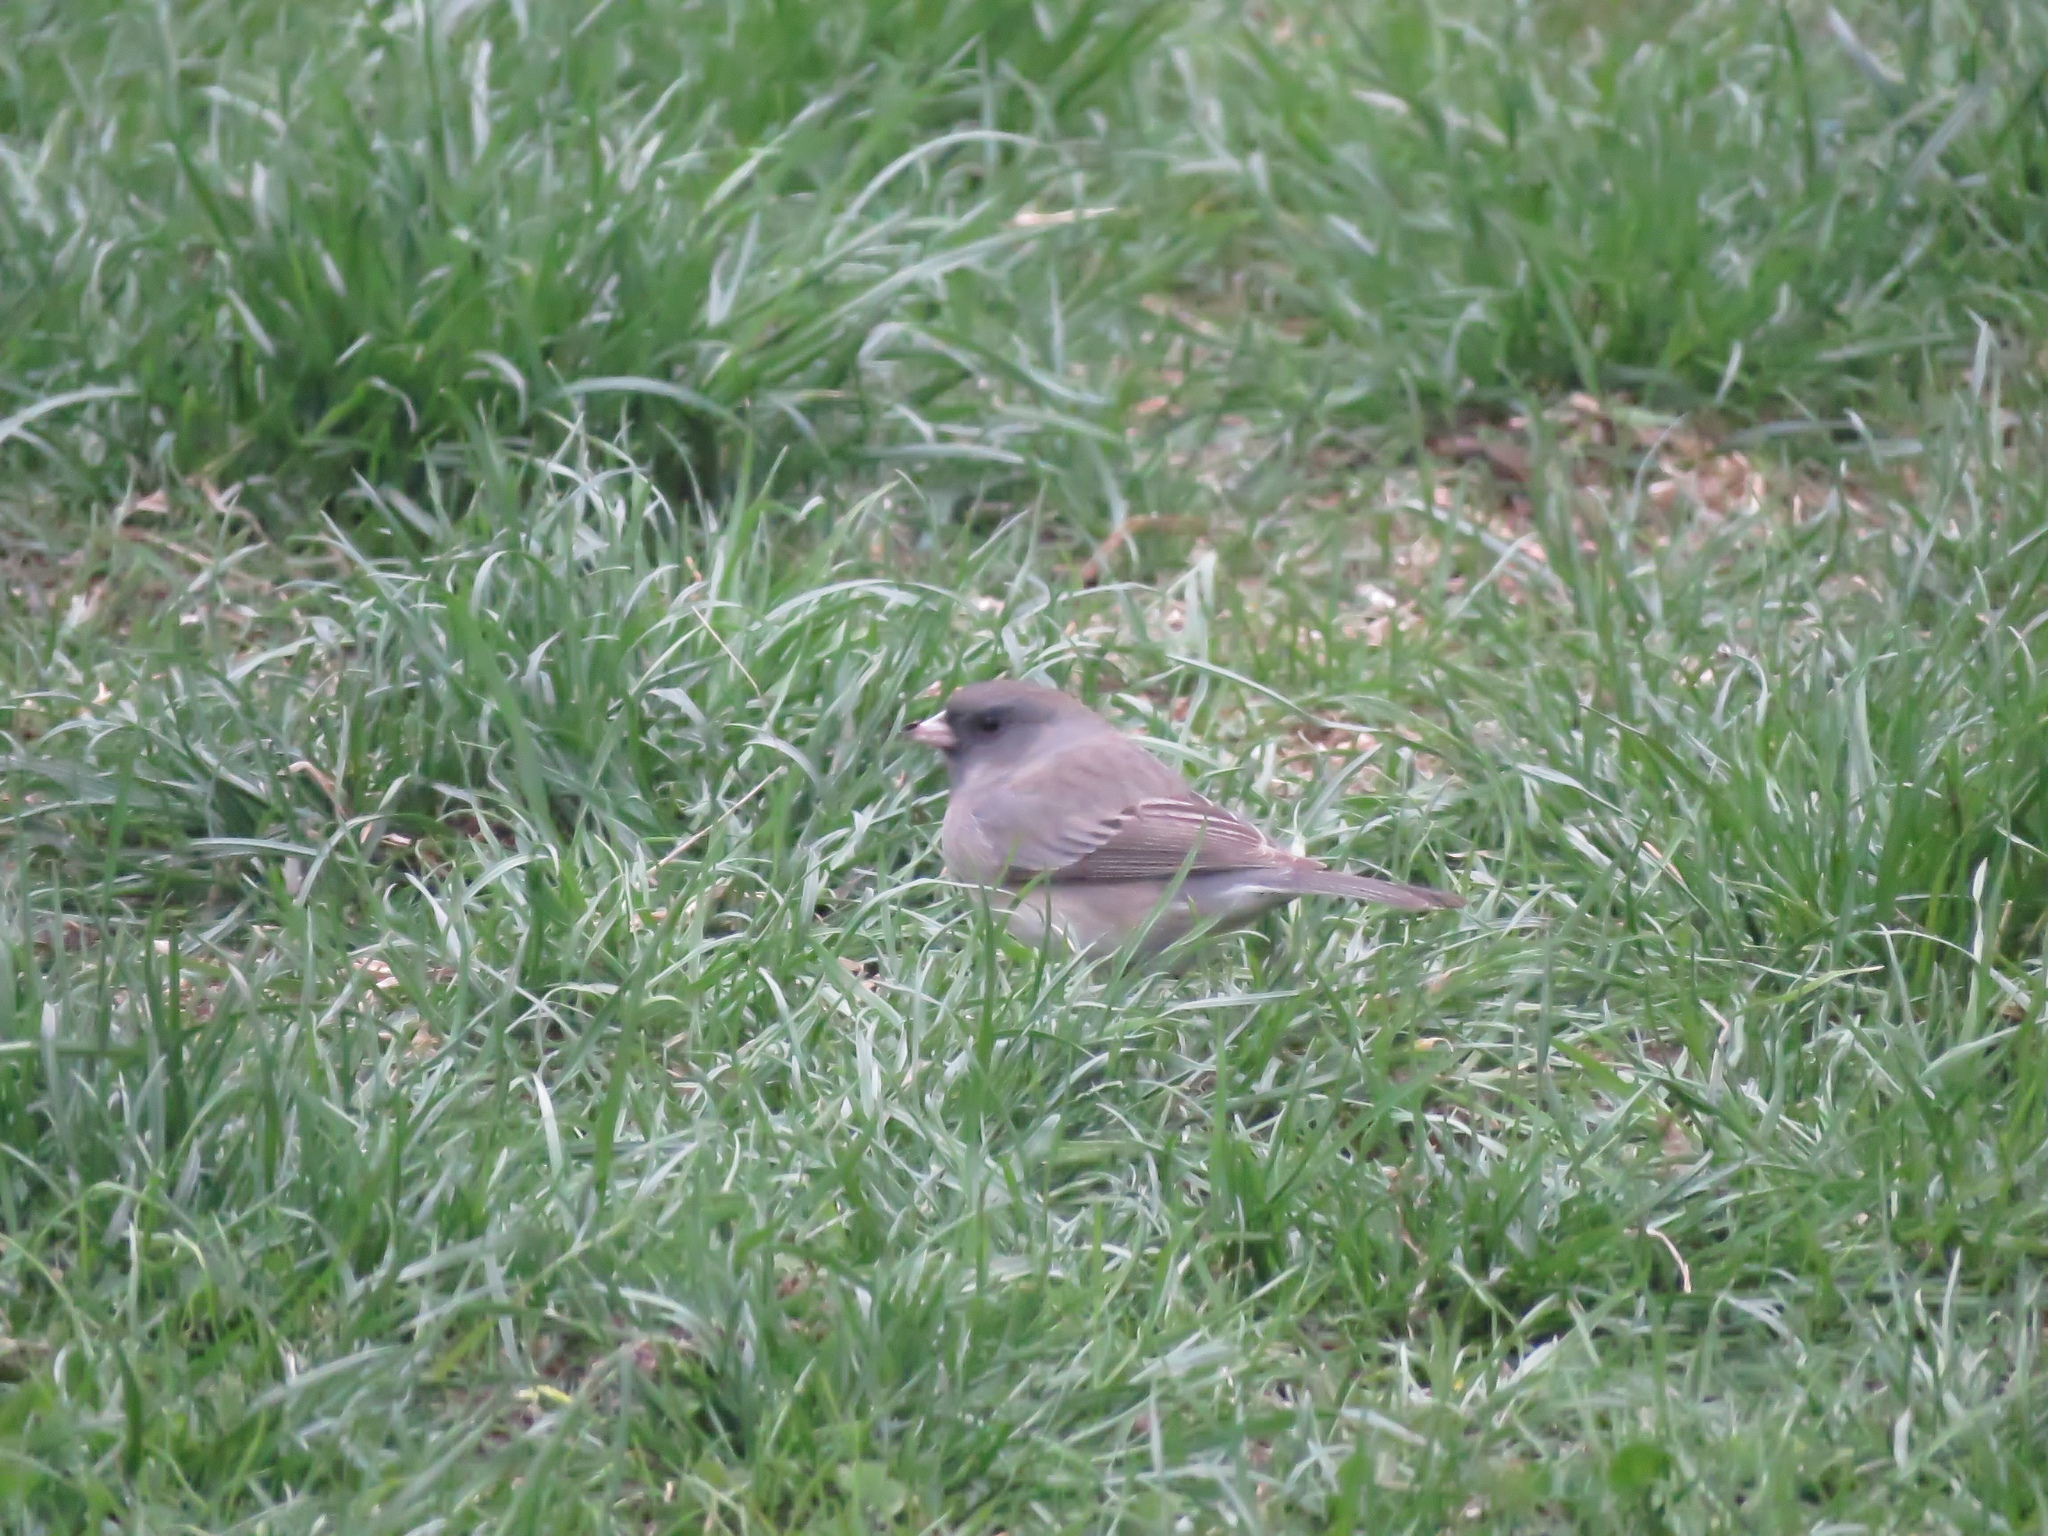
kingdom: Animalia
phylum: Chordata
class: Aves
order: Passeriformes
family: Passerellidae
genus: Junco
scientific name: Junco hyemalis
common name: Dark-eyed junco
